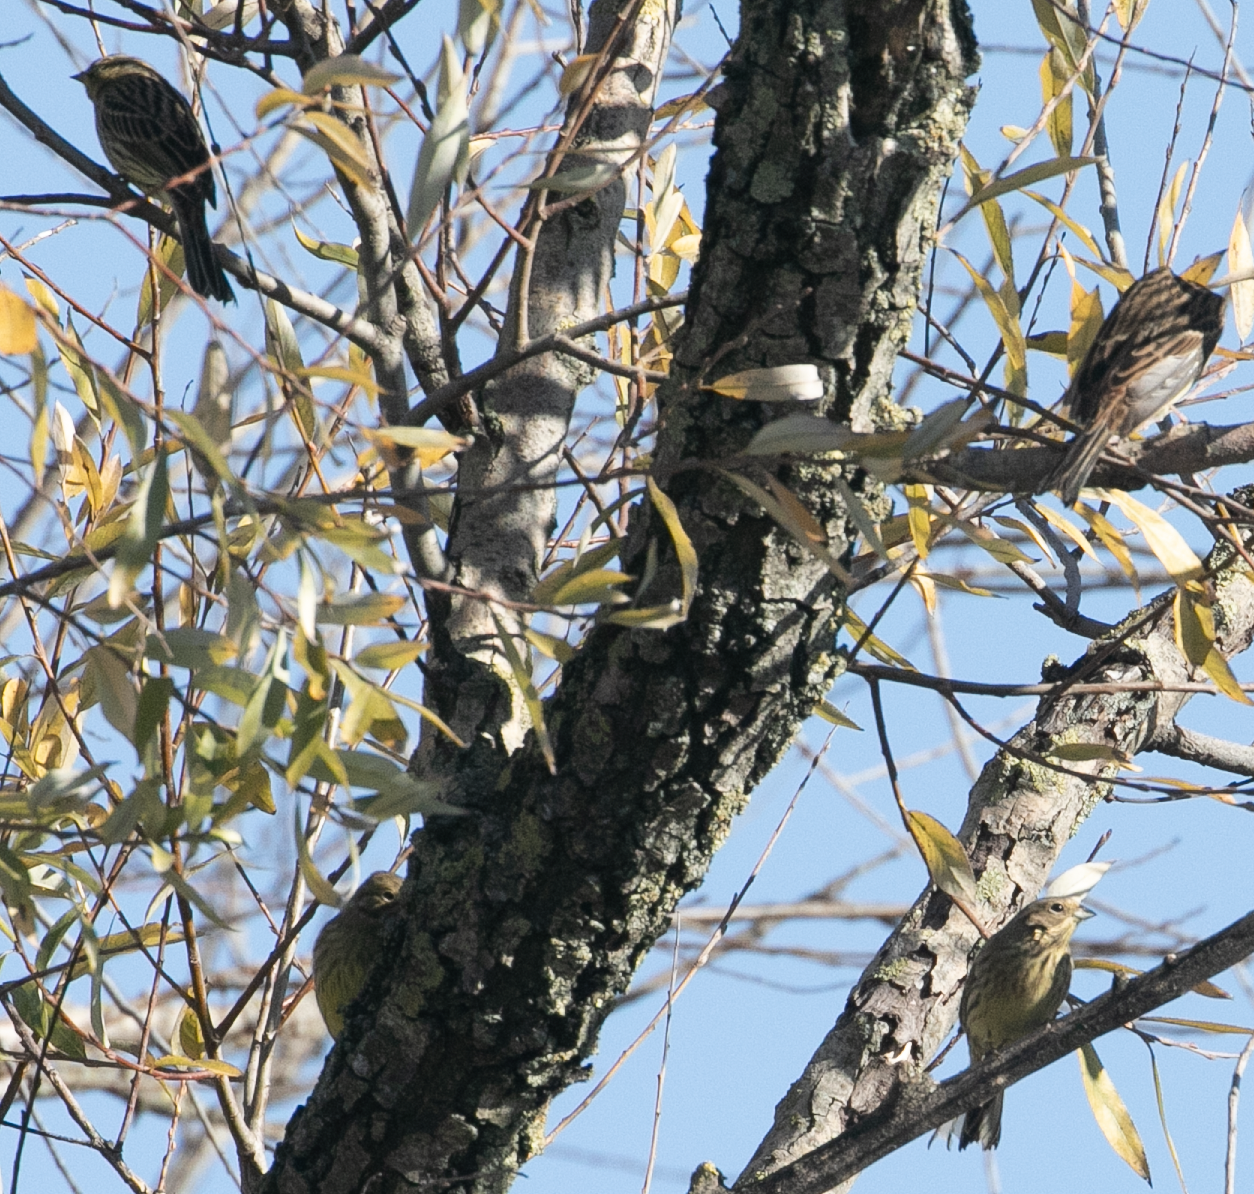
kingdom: Animalia
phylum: Chordata
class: Aves
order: Passeriformes
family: Emberizidae
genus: Emberiza
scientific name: Emberiza citrinella
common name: Yellowhammer
